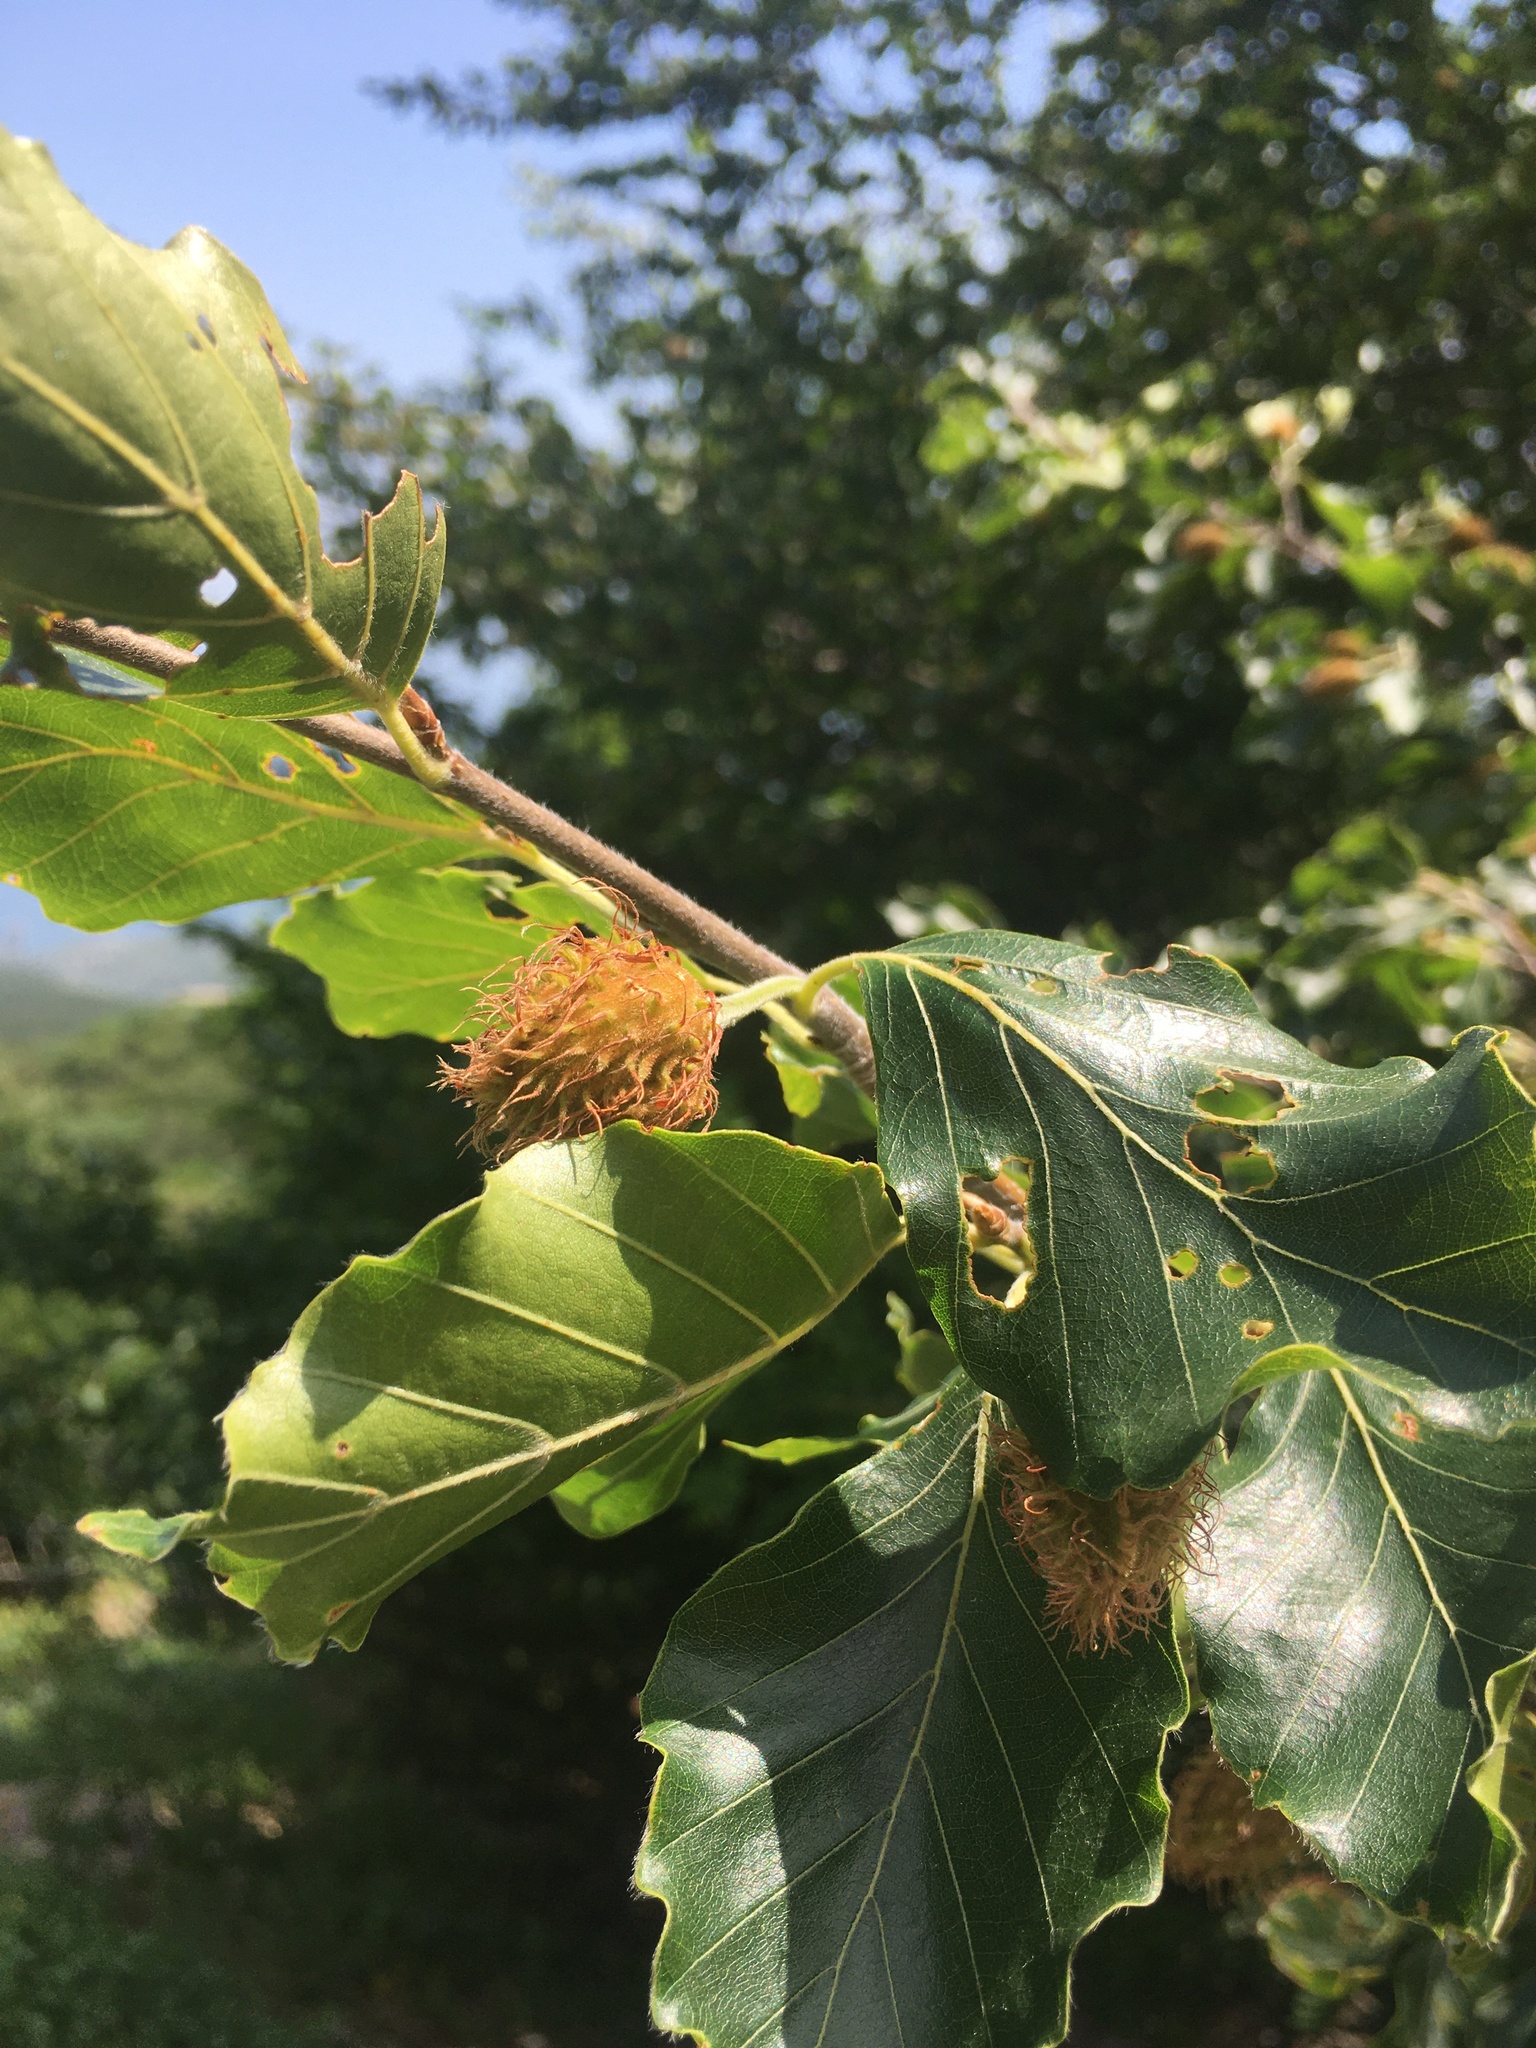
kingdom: Plantae
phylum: Tracheophyta
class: Magnoliopsida
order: Fagales
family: Fagaceae
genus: Fagus
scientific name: Fagus sylvatica
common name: Beech
